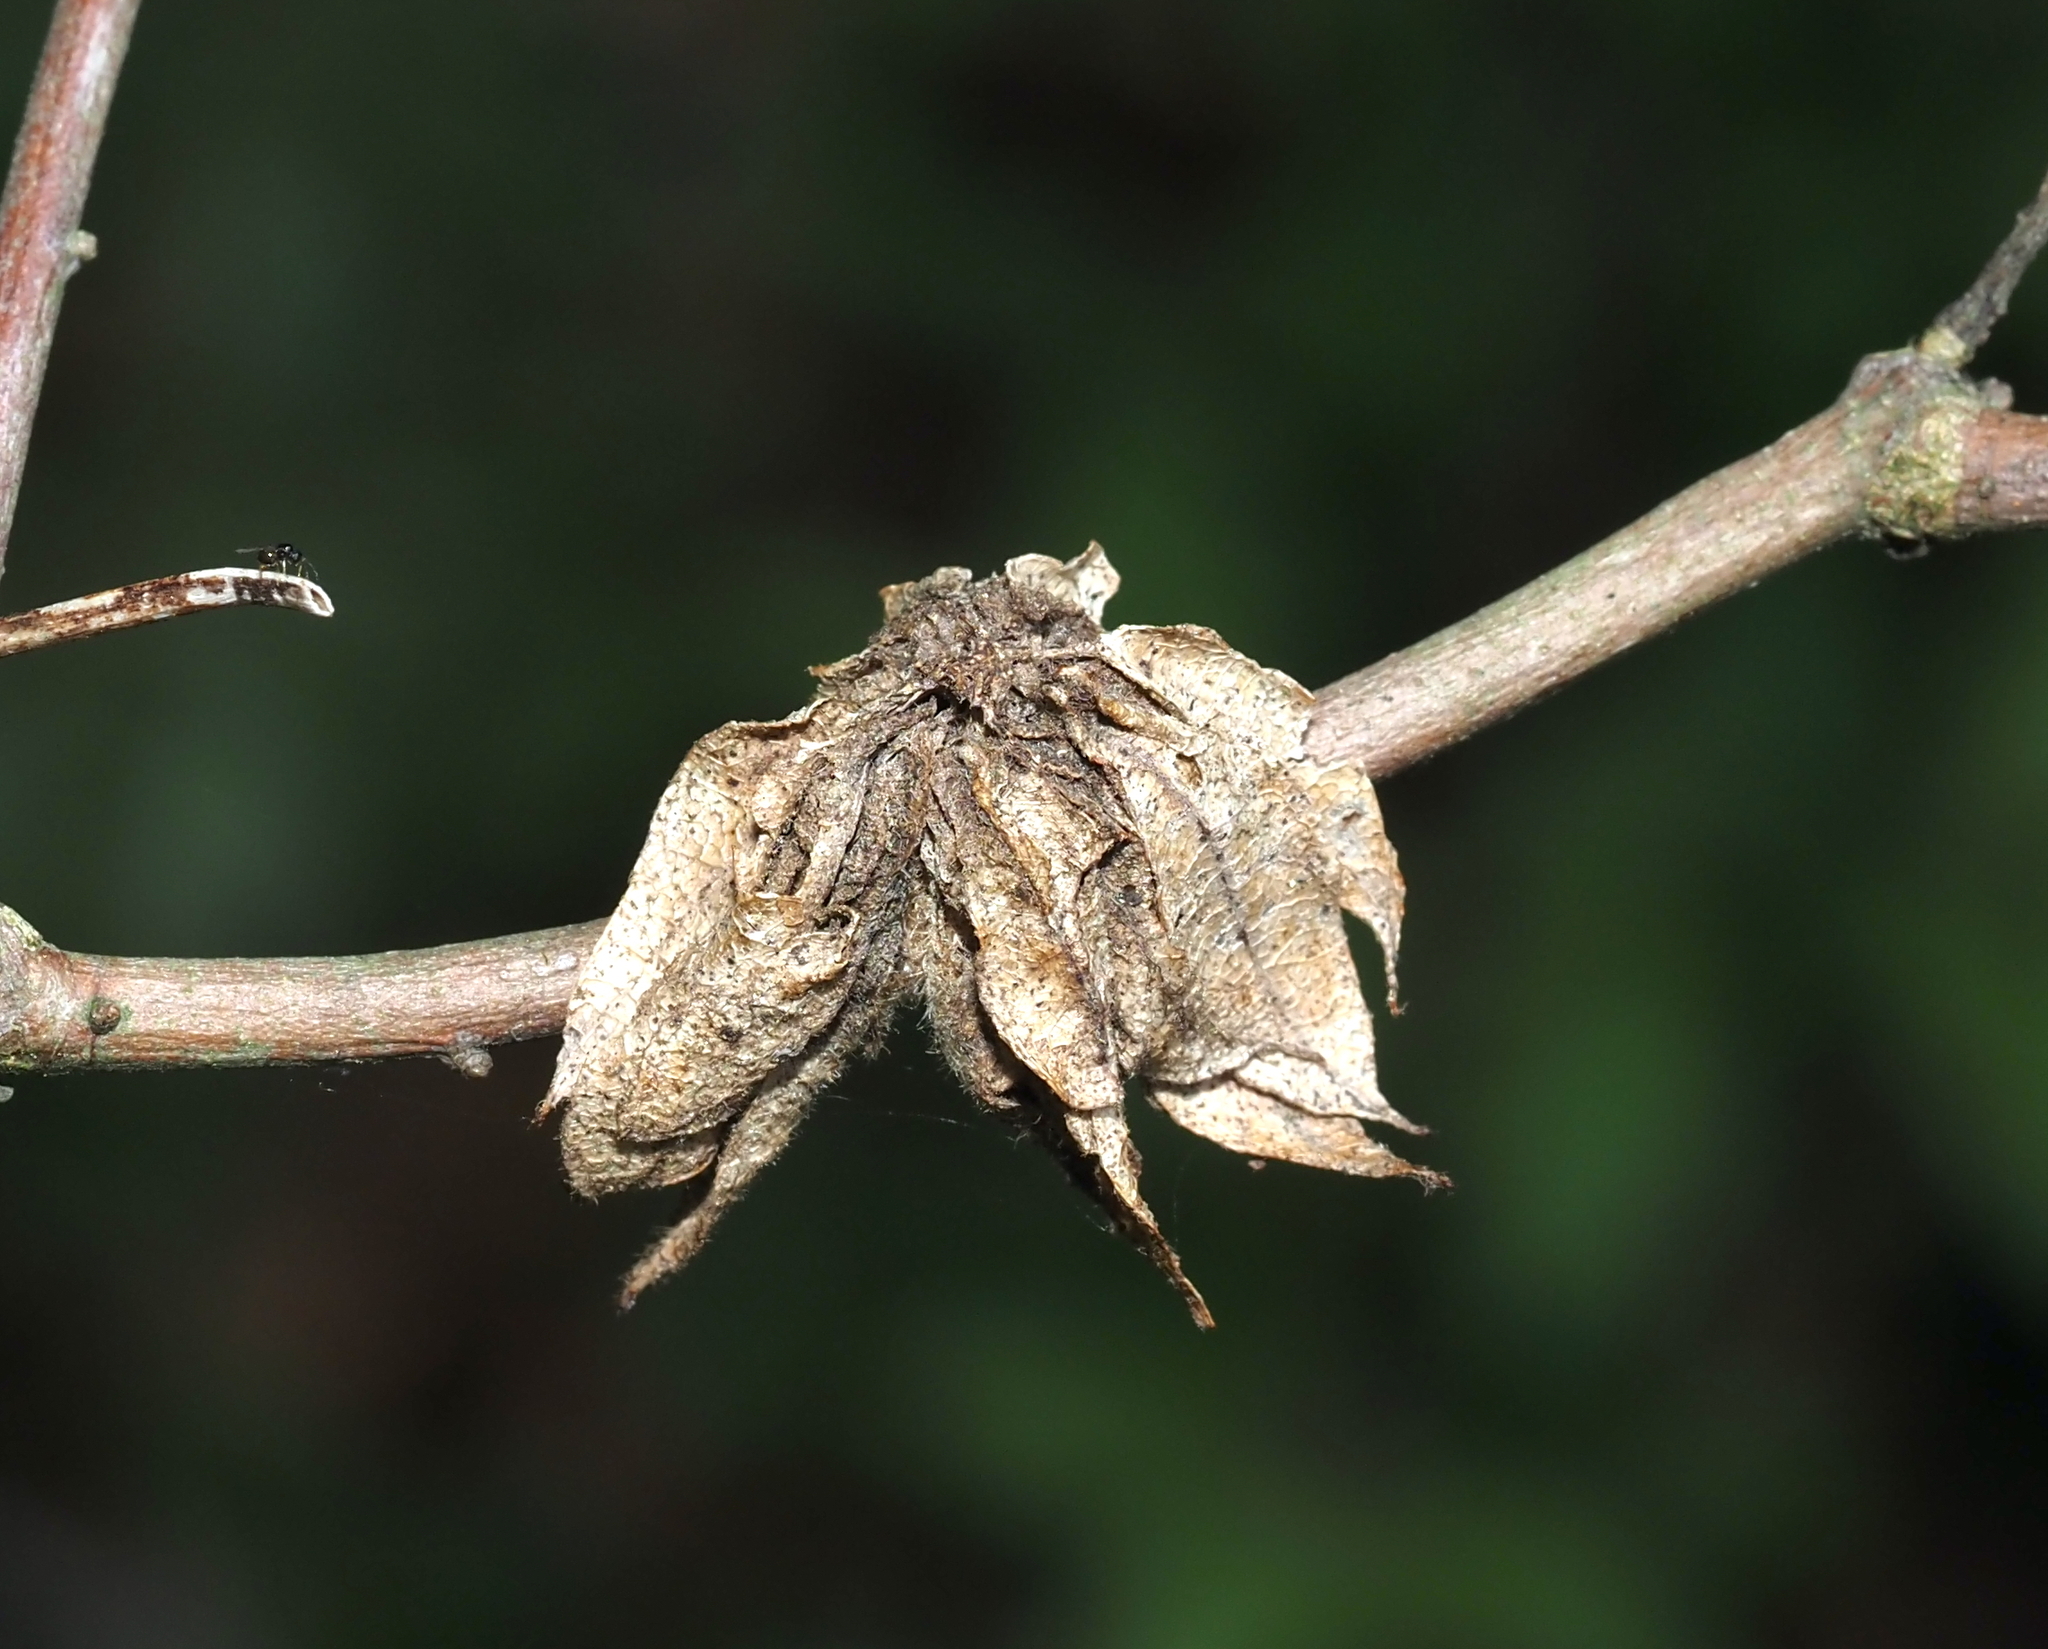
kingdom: Animalia
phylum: Arthropoda
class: Insecta
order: Hymenoptera
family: Cynipidae
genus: Dryocosmus
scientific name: Dryocosmus
